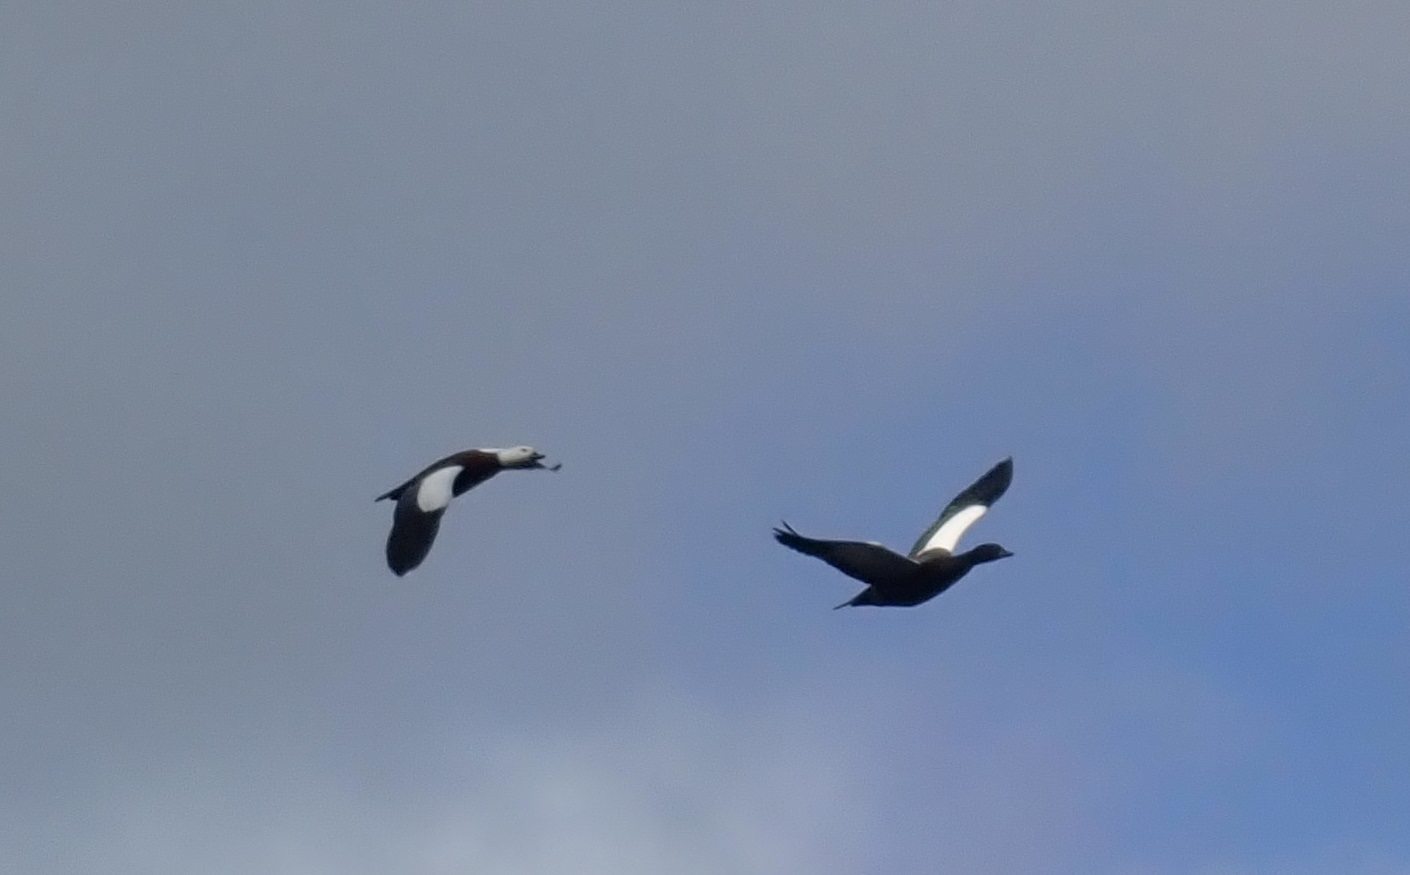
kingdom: Animalia
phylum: Chordata
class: Aves
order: Anseriformes
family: Anatidae
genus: Tadorna
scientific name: Tadorna variegata
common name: Paradise shelduck
